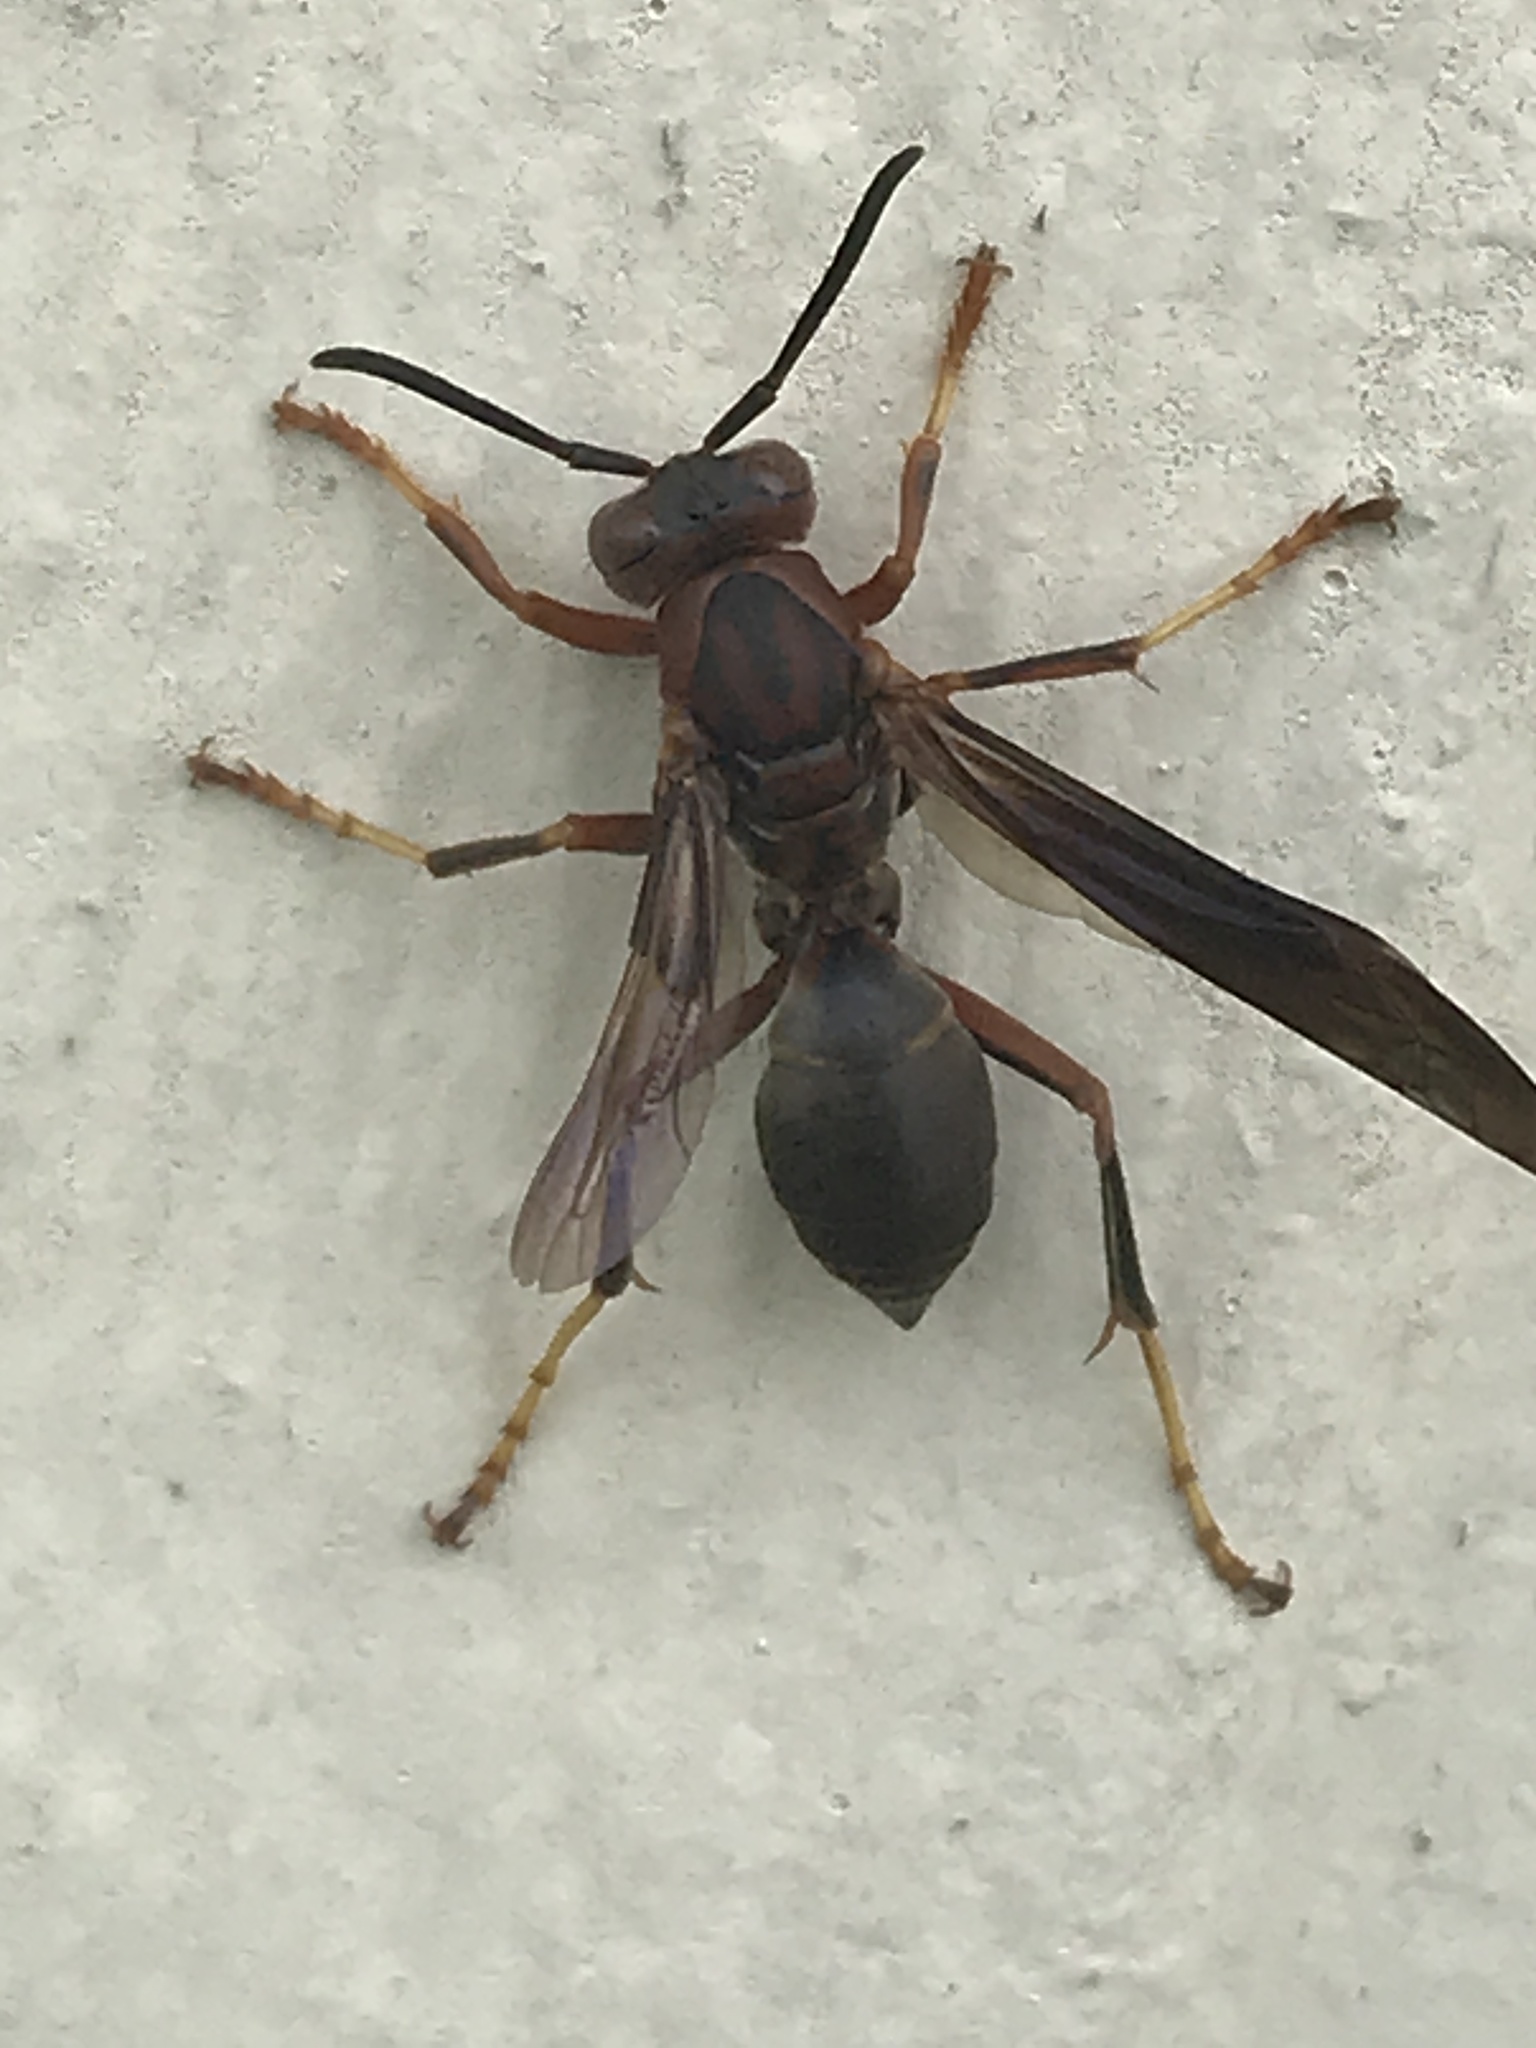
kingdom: Animalia
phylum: Arthropoda
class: Insecta
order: Hymenoptera
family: Eumenidae
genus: Polistes
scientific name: Polistes metricus
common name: Metric paper wasp
